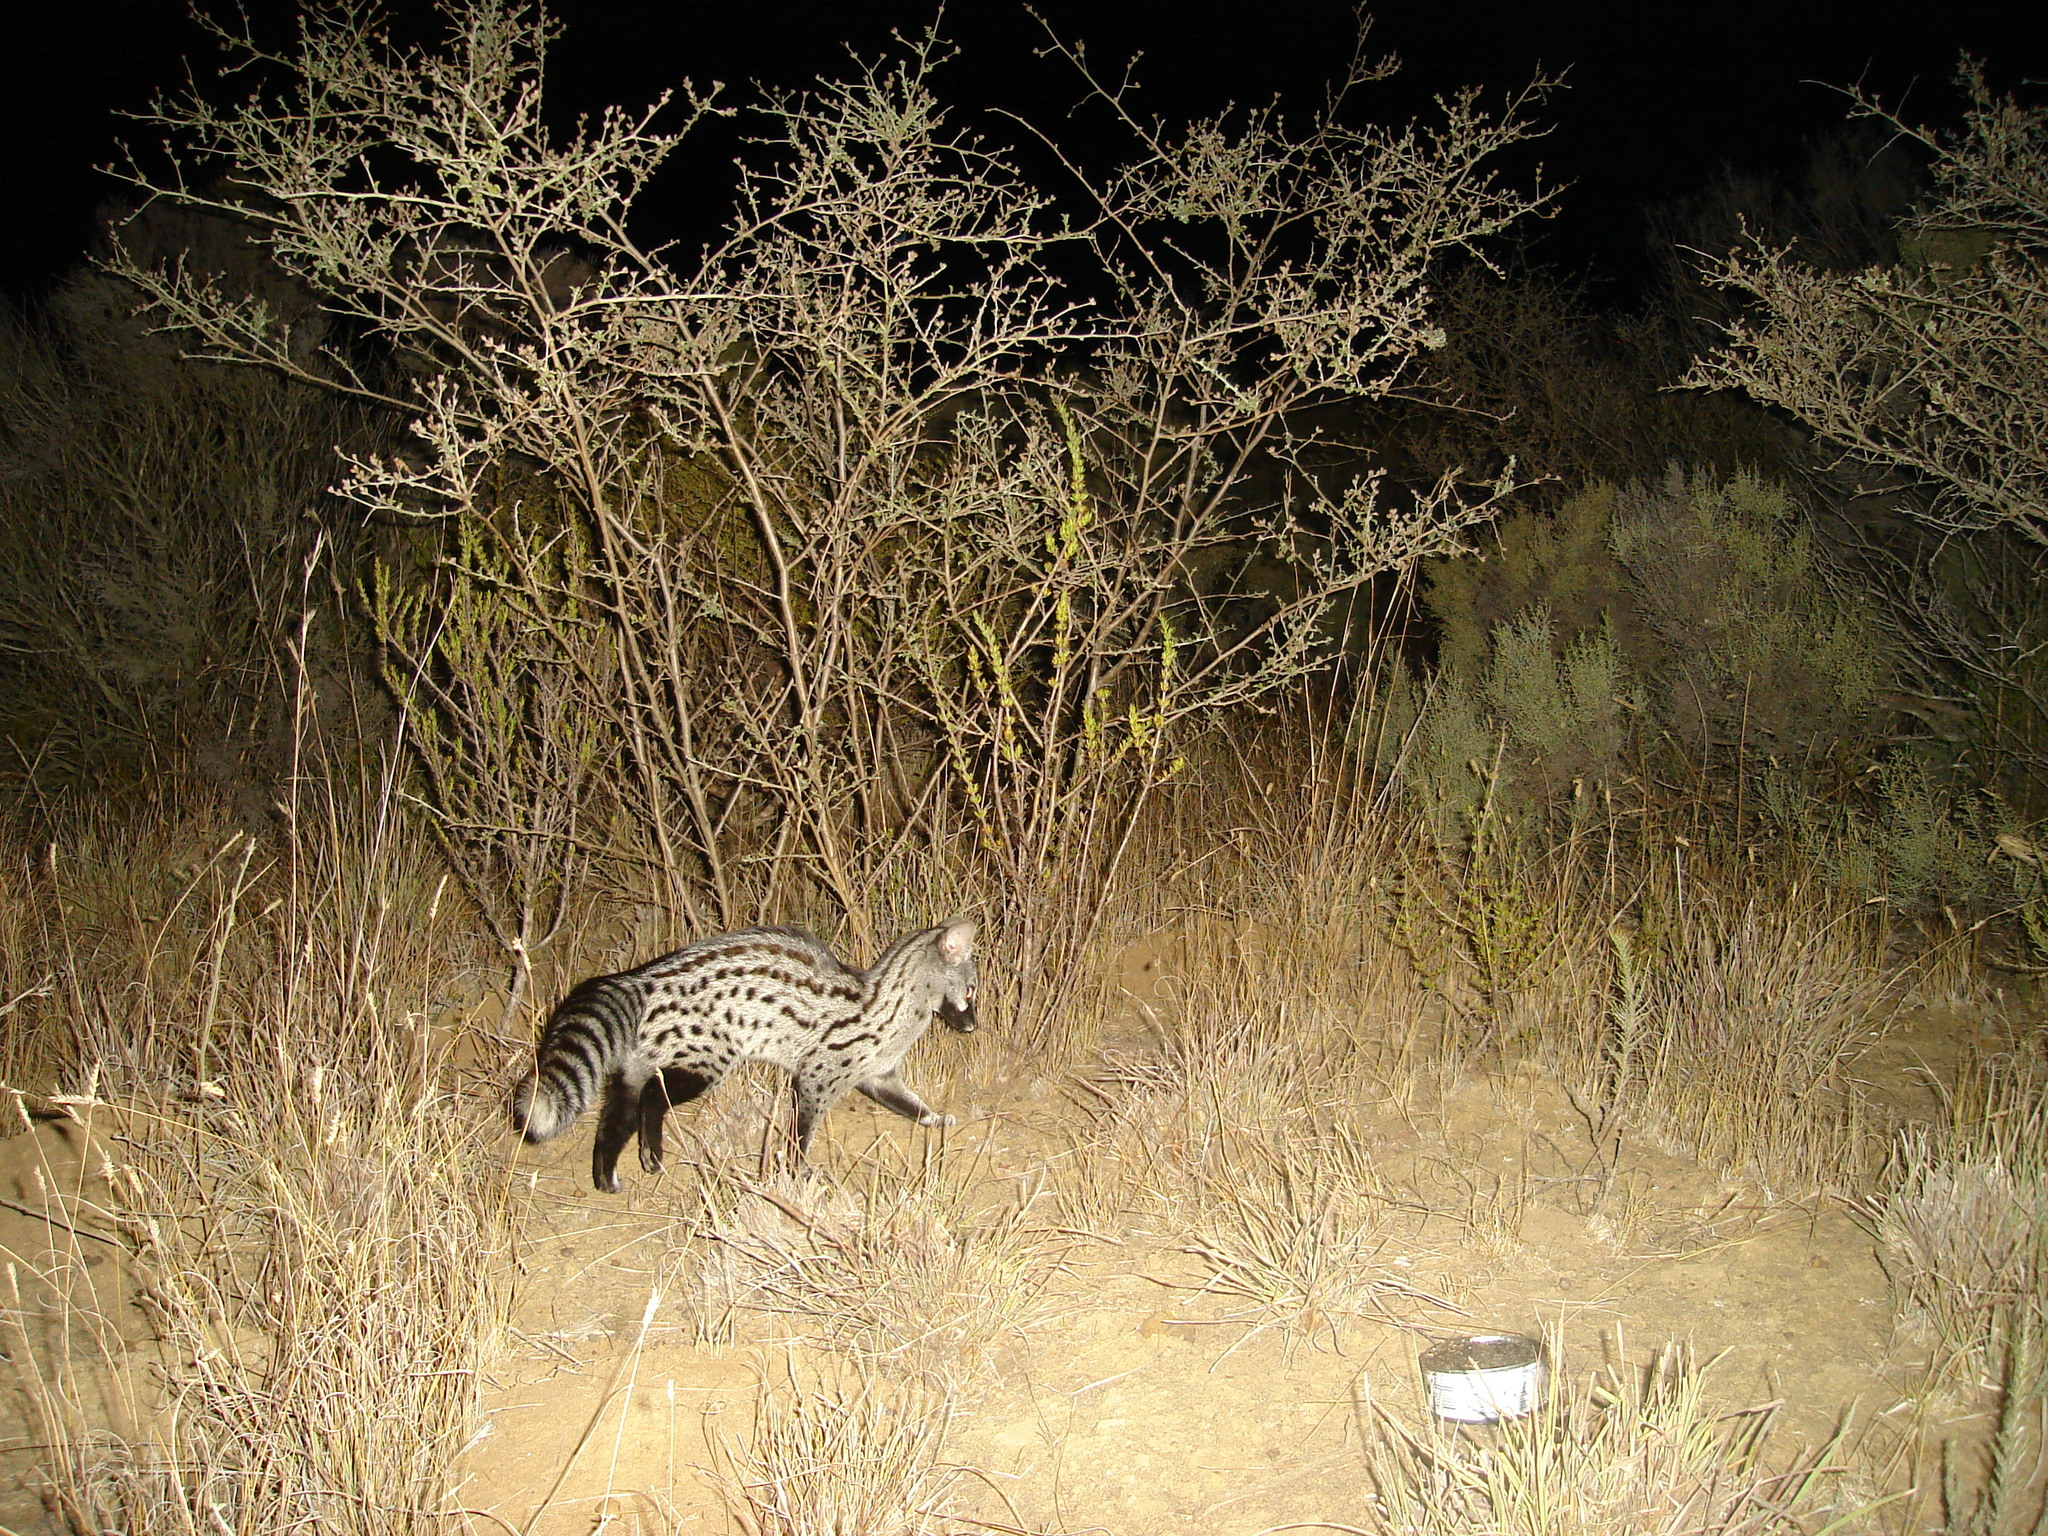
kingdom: Animalia
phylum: Chordata
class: Mammalia
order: Carnivora
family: Viverridae
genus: Genetta
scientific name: Genetta genetta
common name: Common genet
